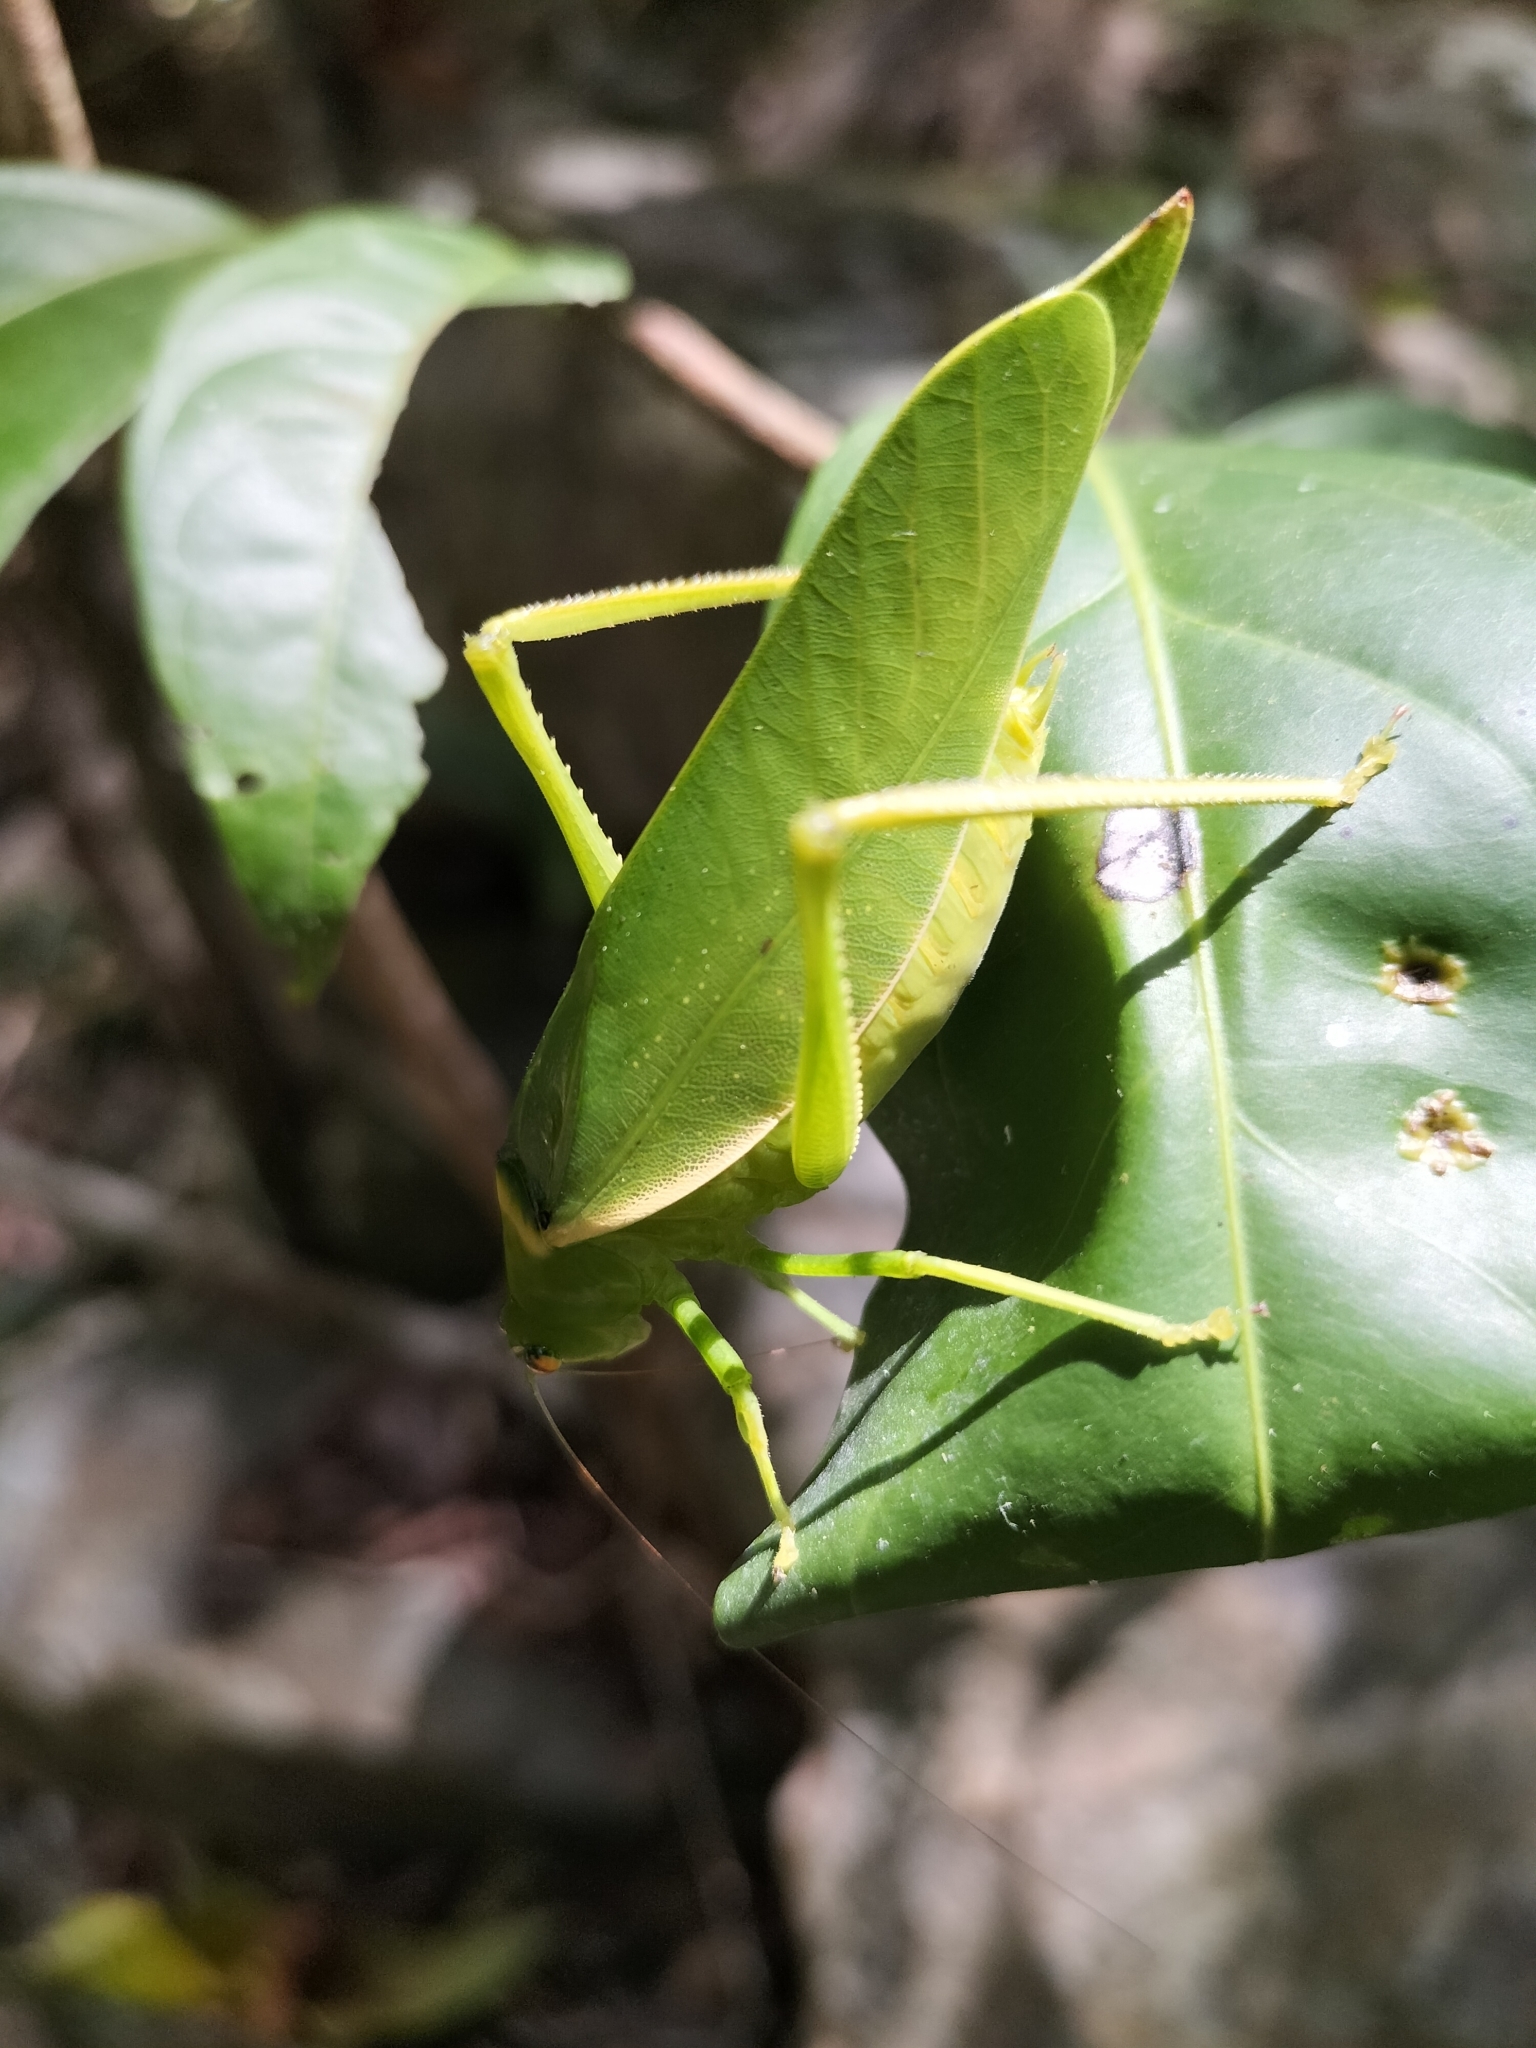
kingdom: Animalia
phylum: Arthropoda
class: Insecta
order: Orthoptera
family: Tettigoniidae
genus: Paracaedicia
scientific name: Paracaedicia serrata
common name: Serrated bush katydid
